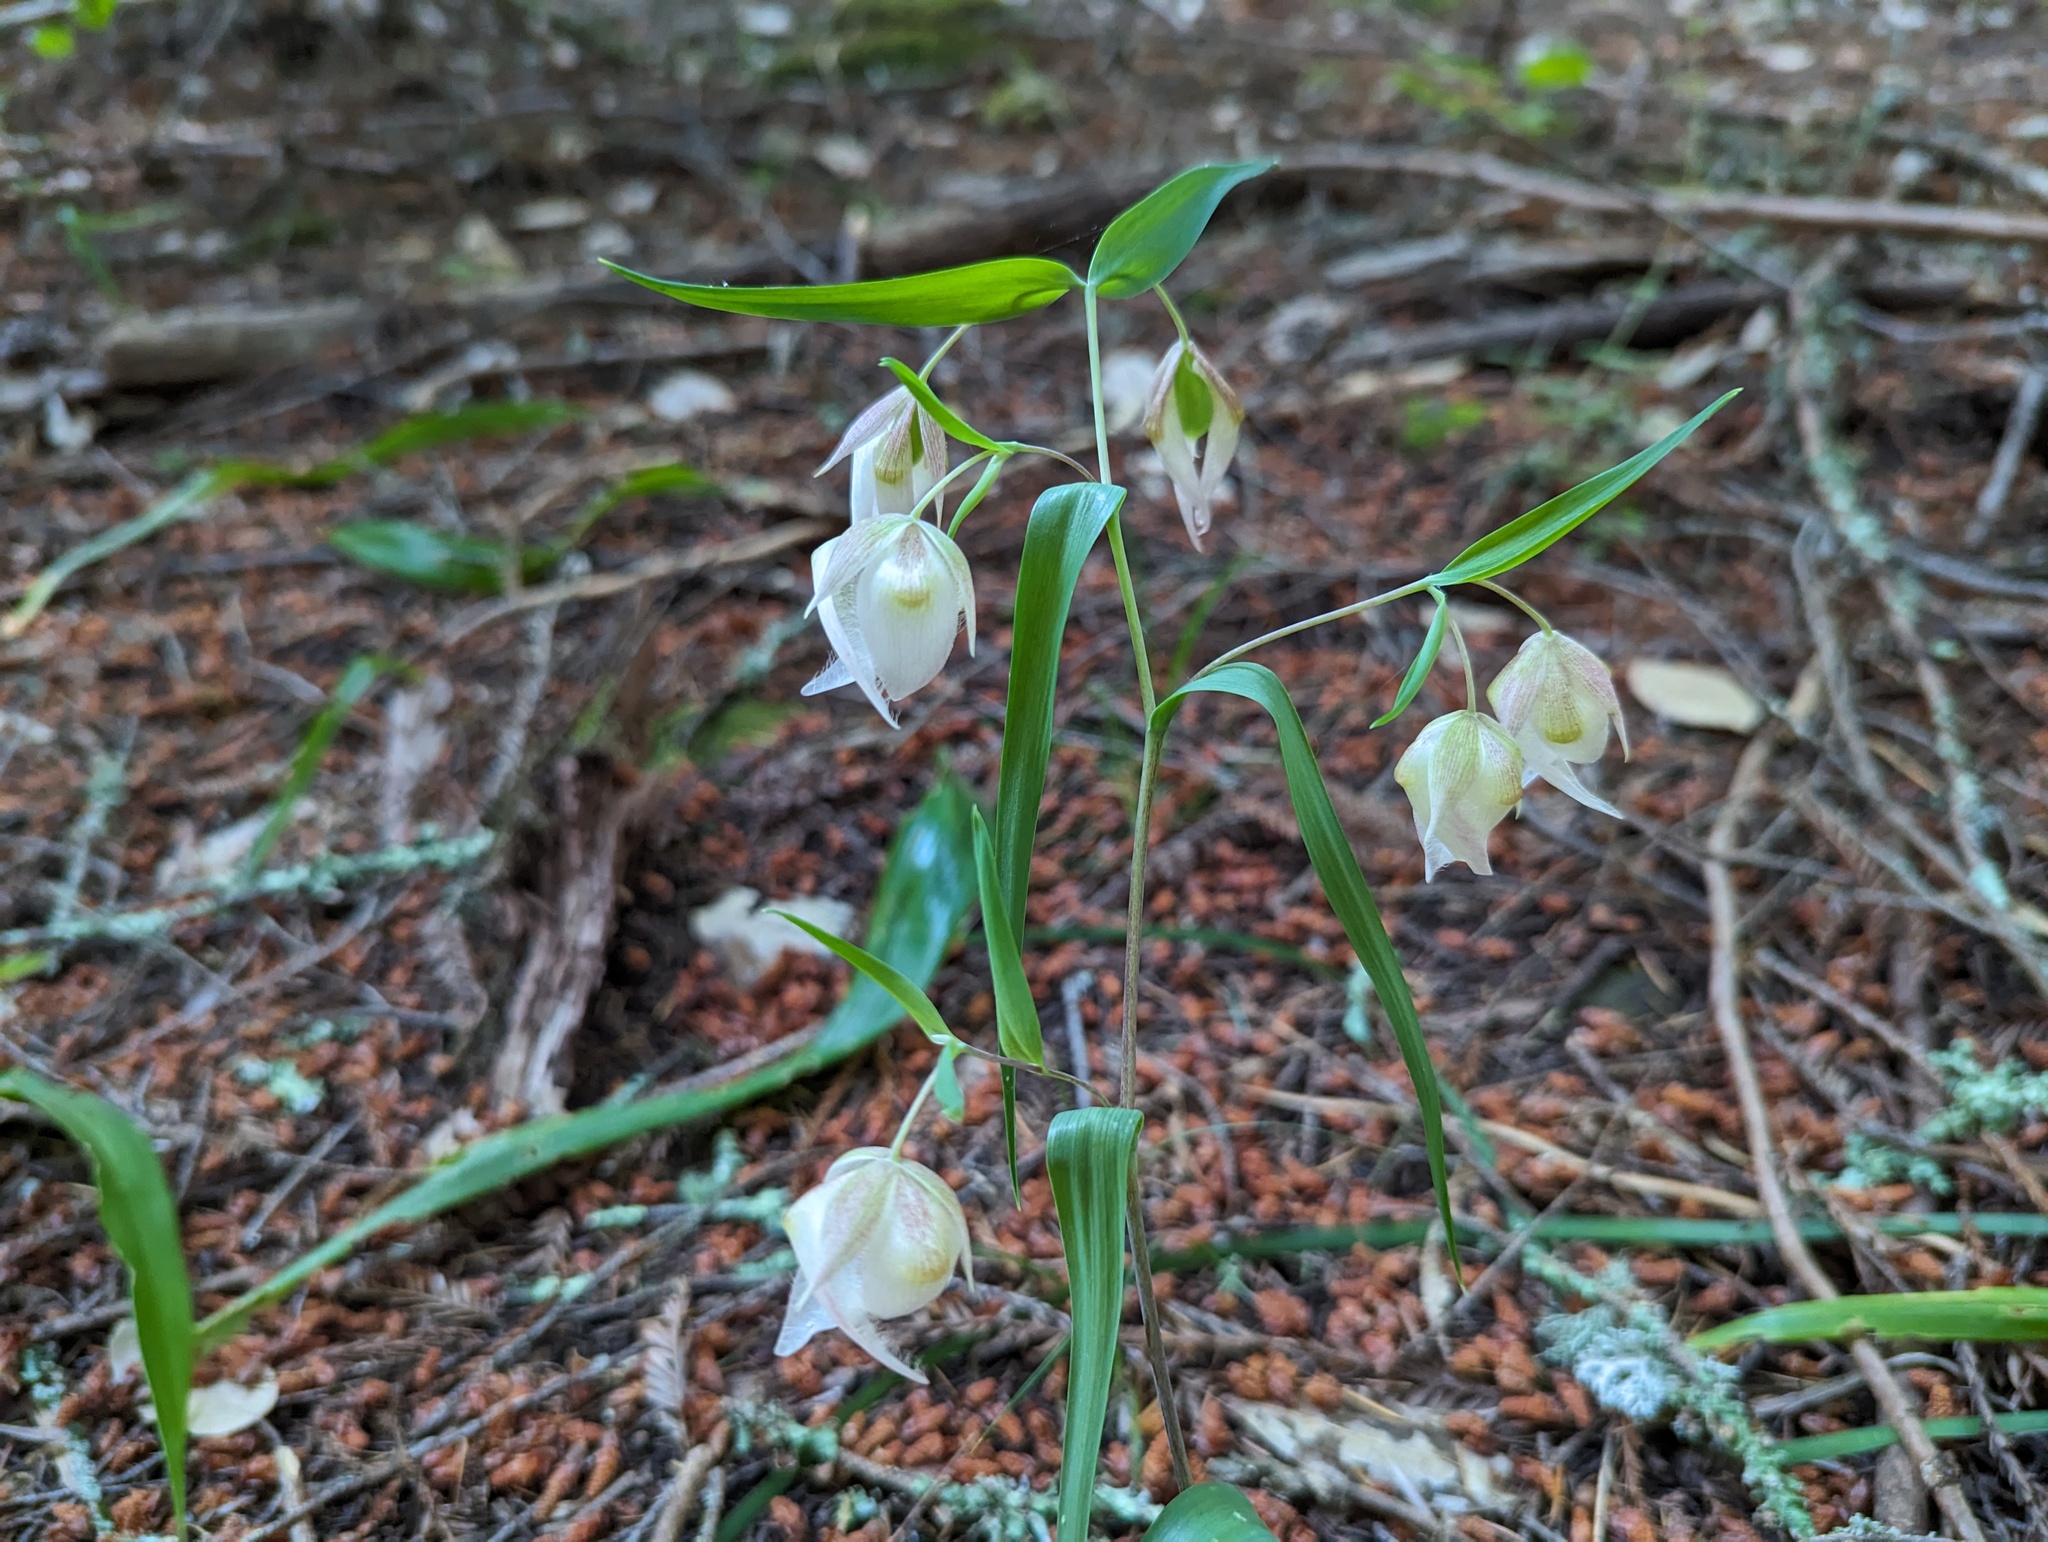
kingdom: Plantae
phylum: Tracheophyta
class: Liliopsida
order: Liliales
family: Liliaceae
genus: Calochortus
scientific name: Calochortus albus
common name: Fairy-lantern
